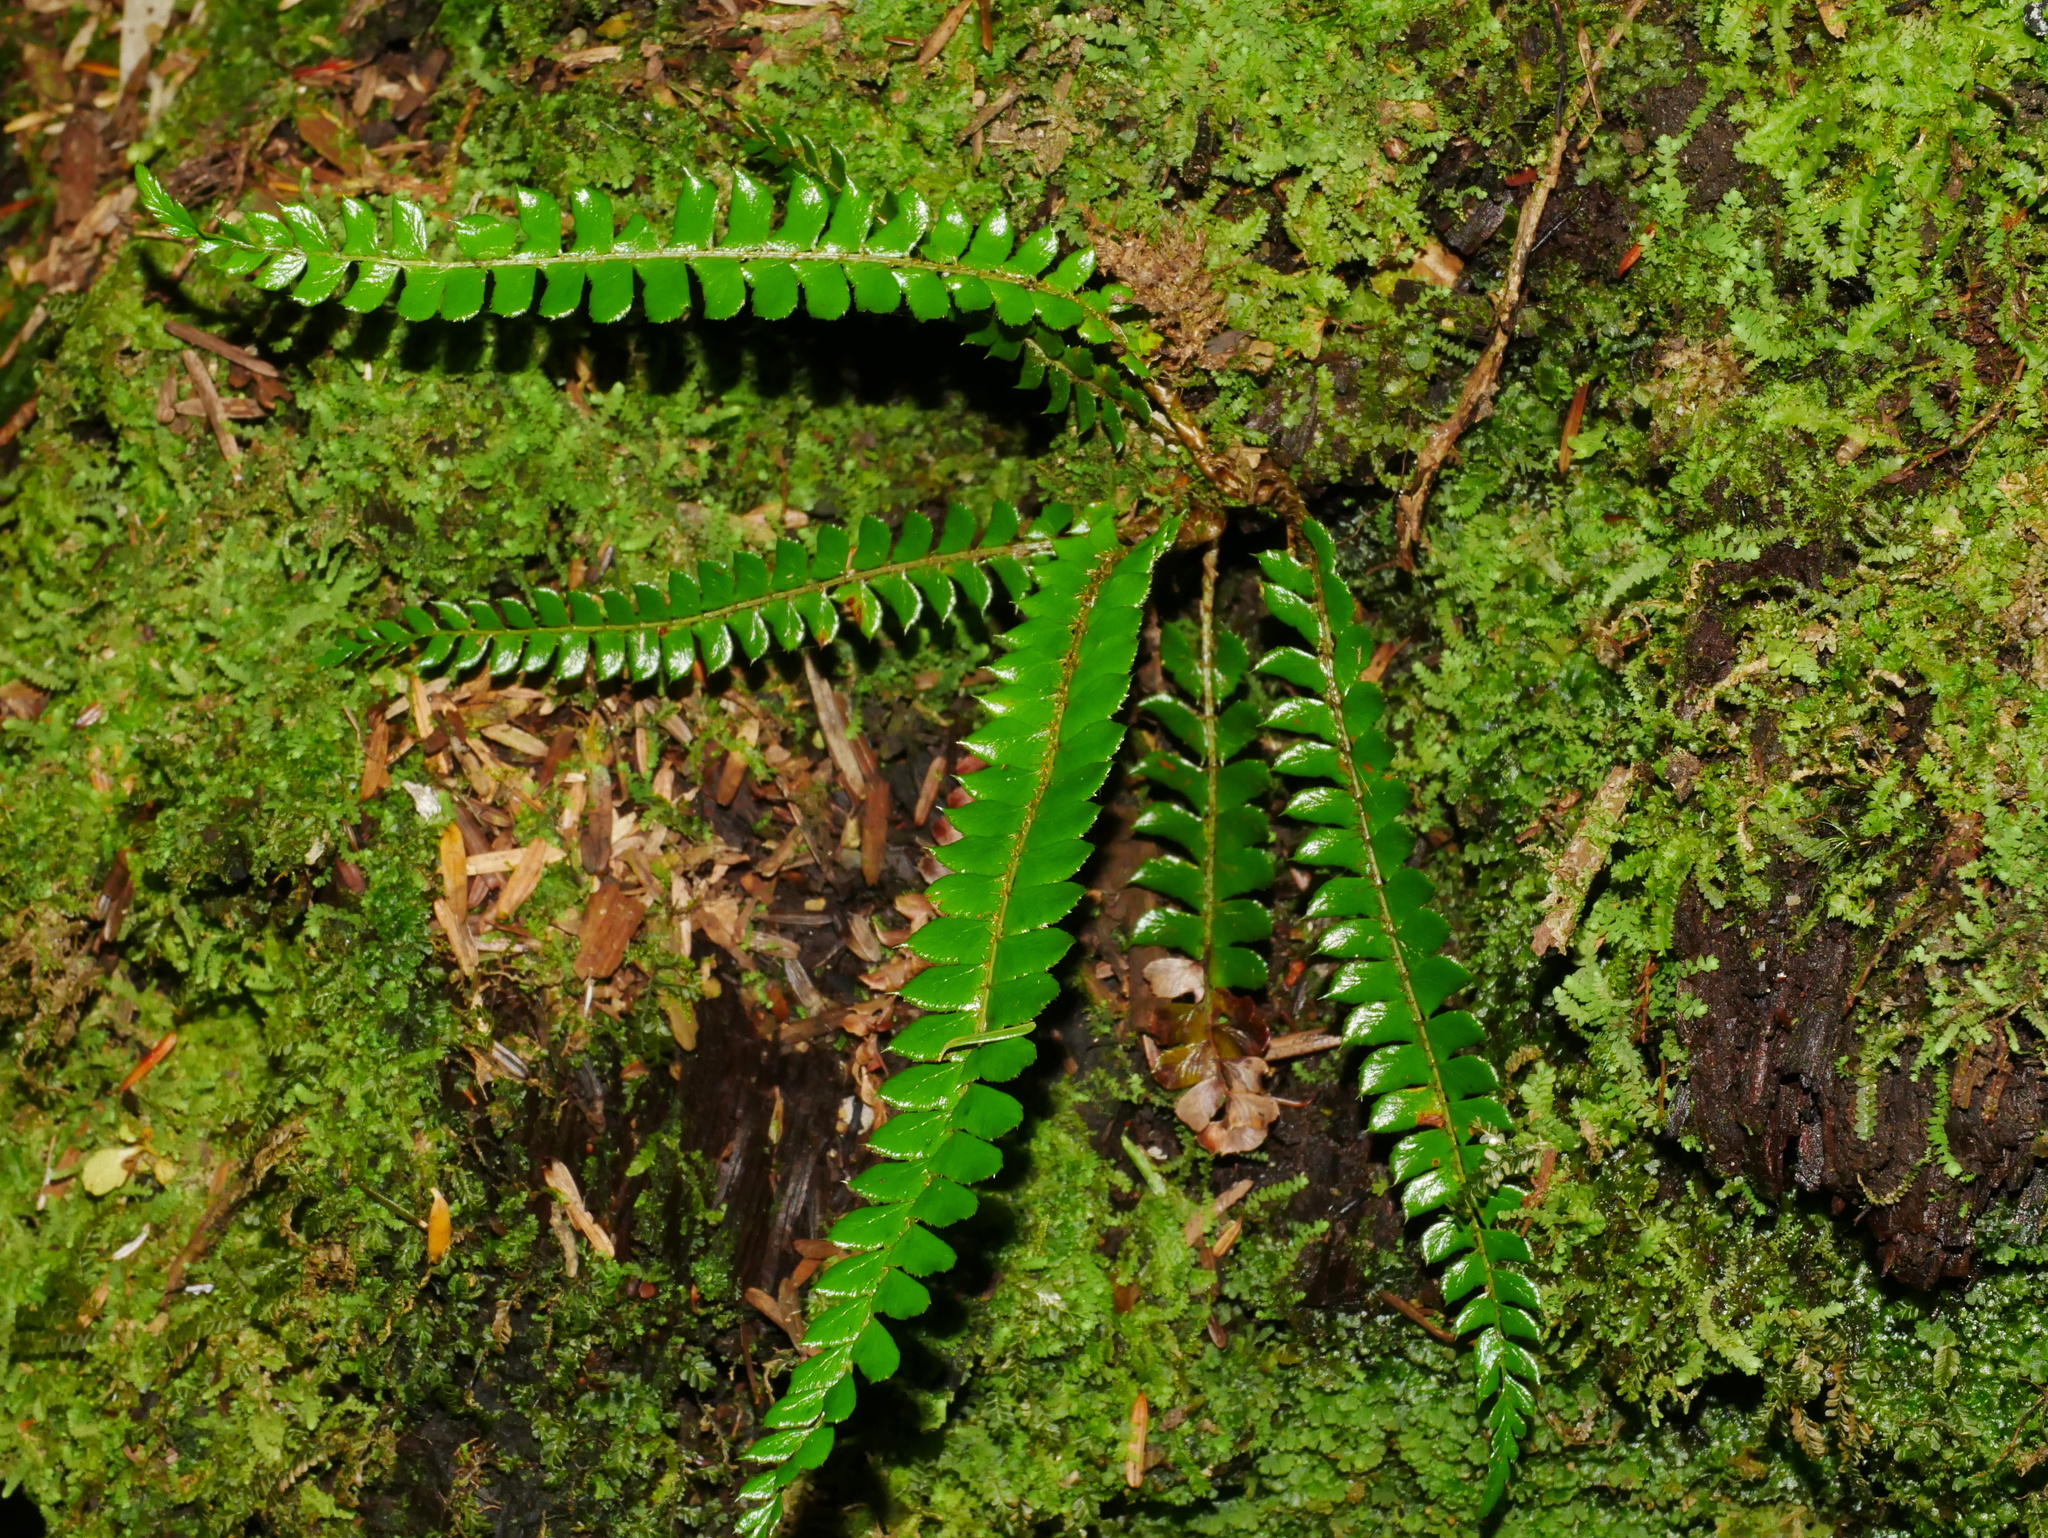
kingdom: Plantae
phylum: Tracheophyta
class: Polypodiopsida
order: Polypodiales
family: Dryopteridaceae
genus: Polystichum
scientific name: Polystichum levingei
